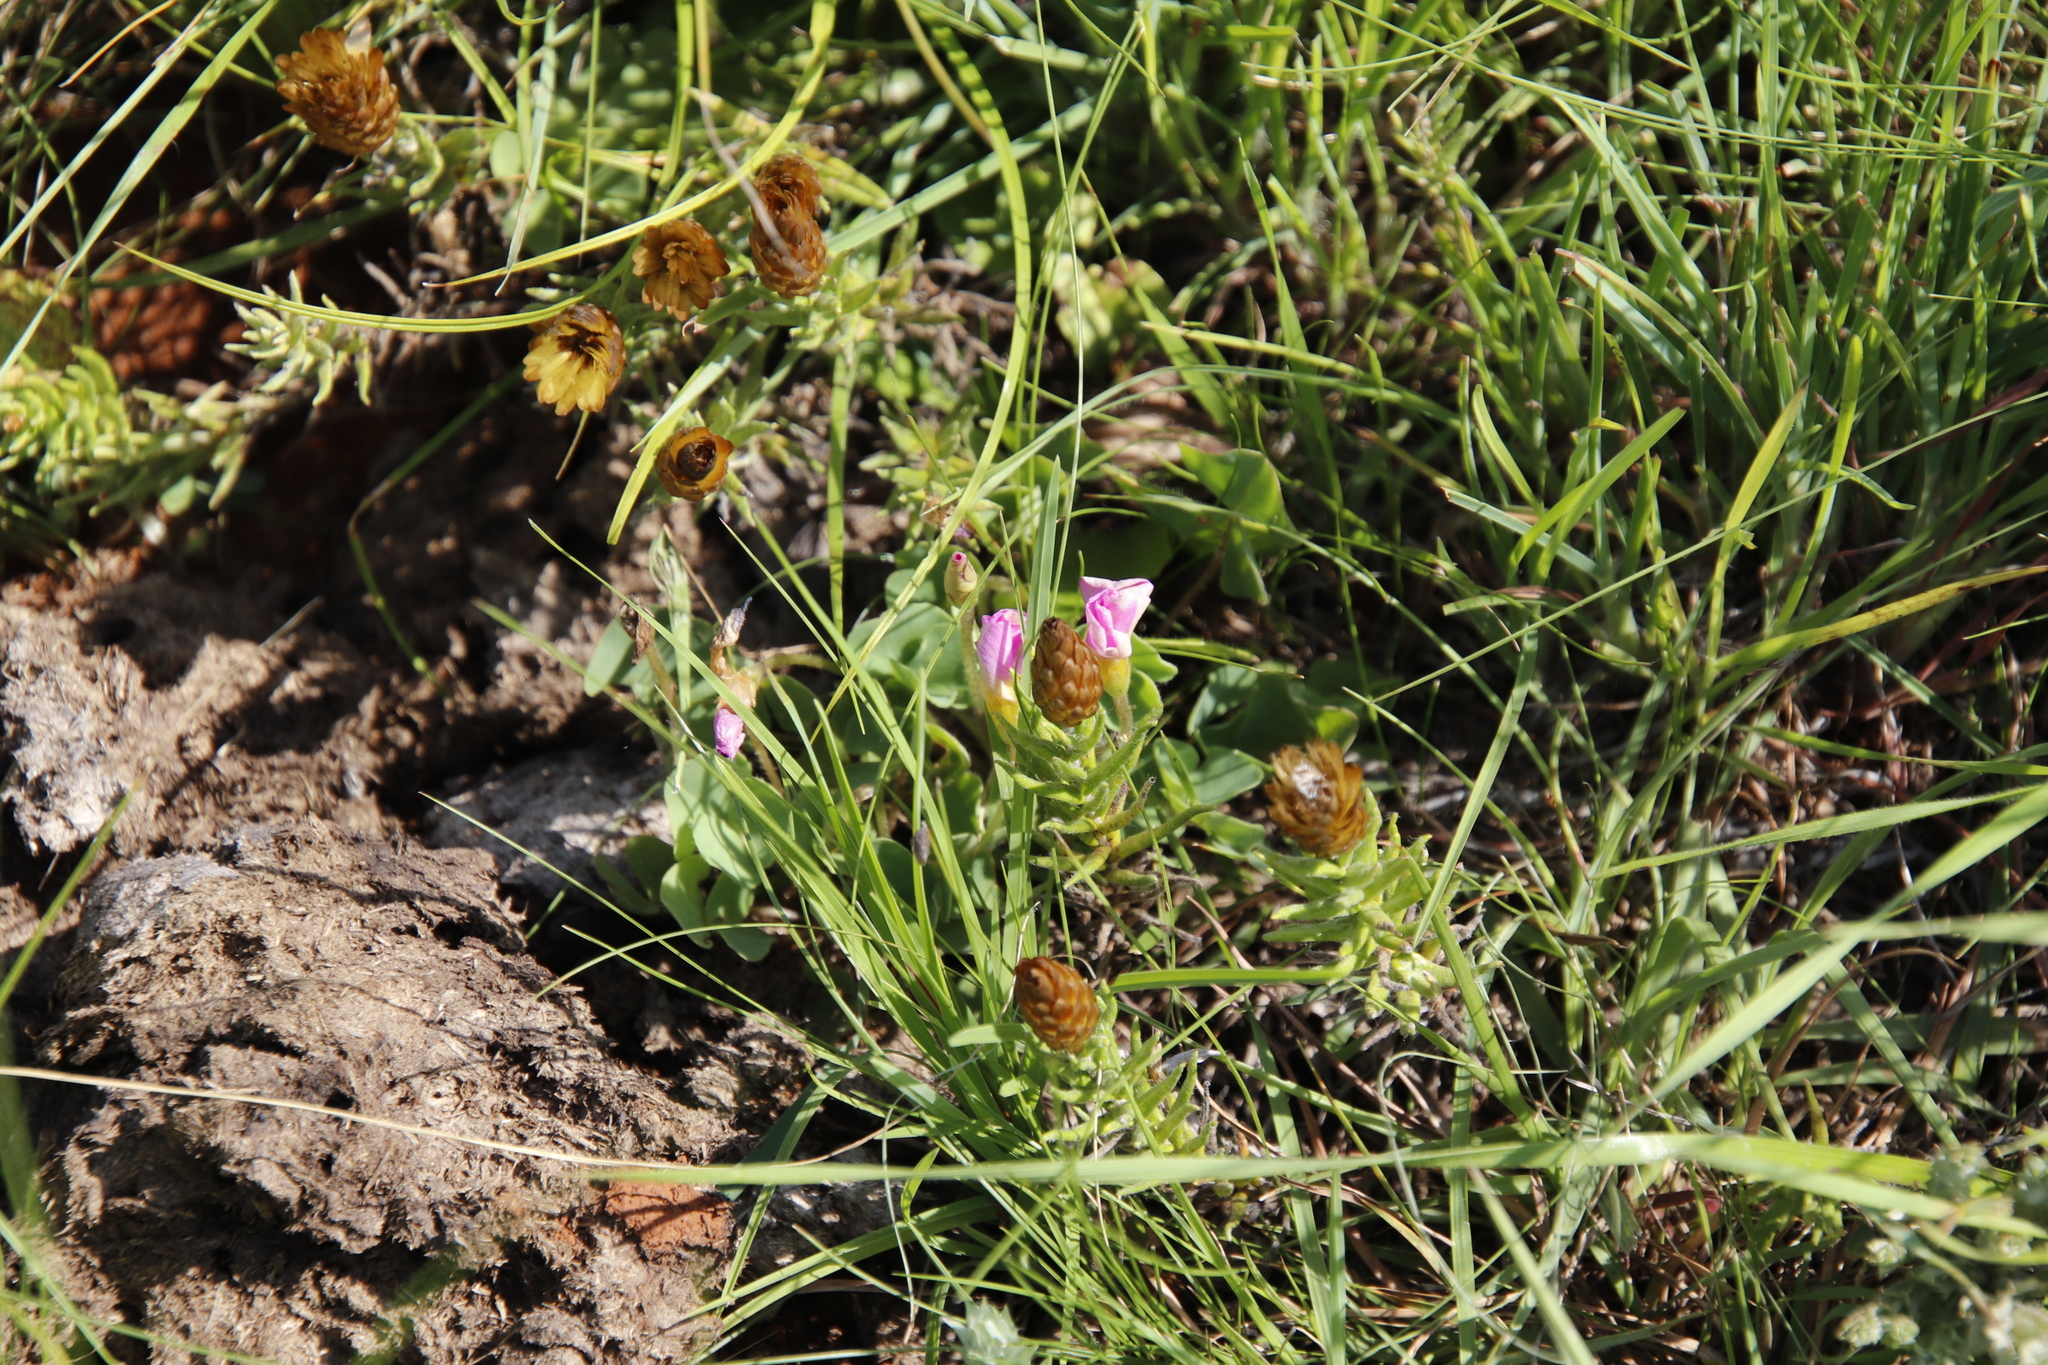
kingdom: Plantae
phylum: Tracheophyta
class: Magnoliopsida
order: Oxalidales
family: Oxalidaceae
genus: Oxalis
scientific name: Oxalis obliquifolia
